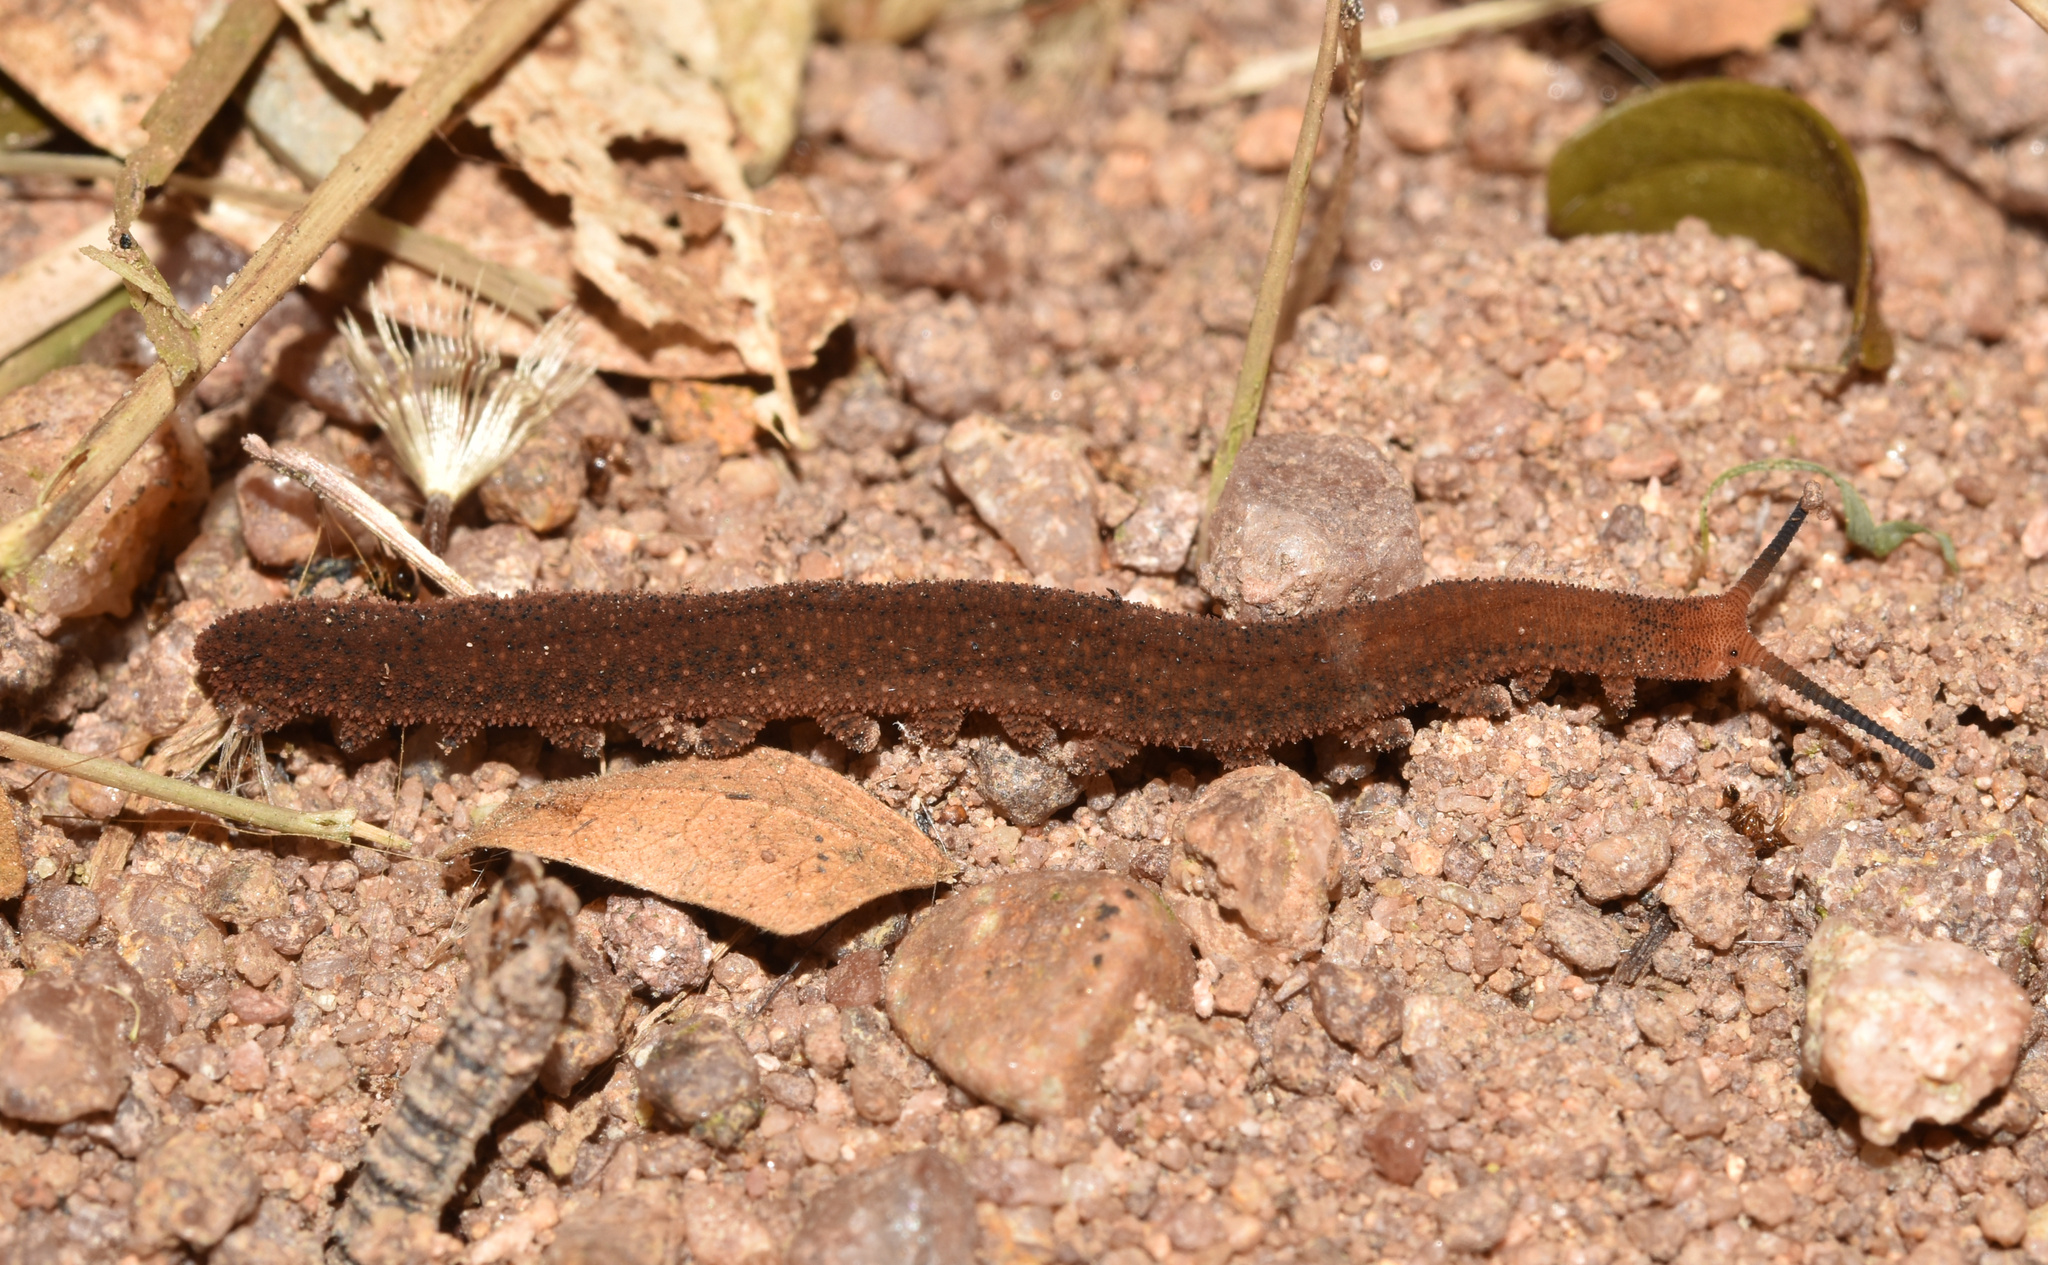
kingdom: Animalia
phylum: Onychophora
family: Peripatopsidae
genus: Opisthopatus
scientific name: Opisthopatus kwazululandi
